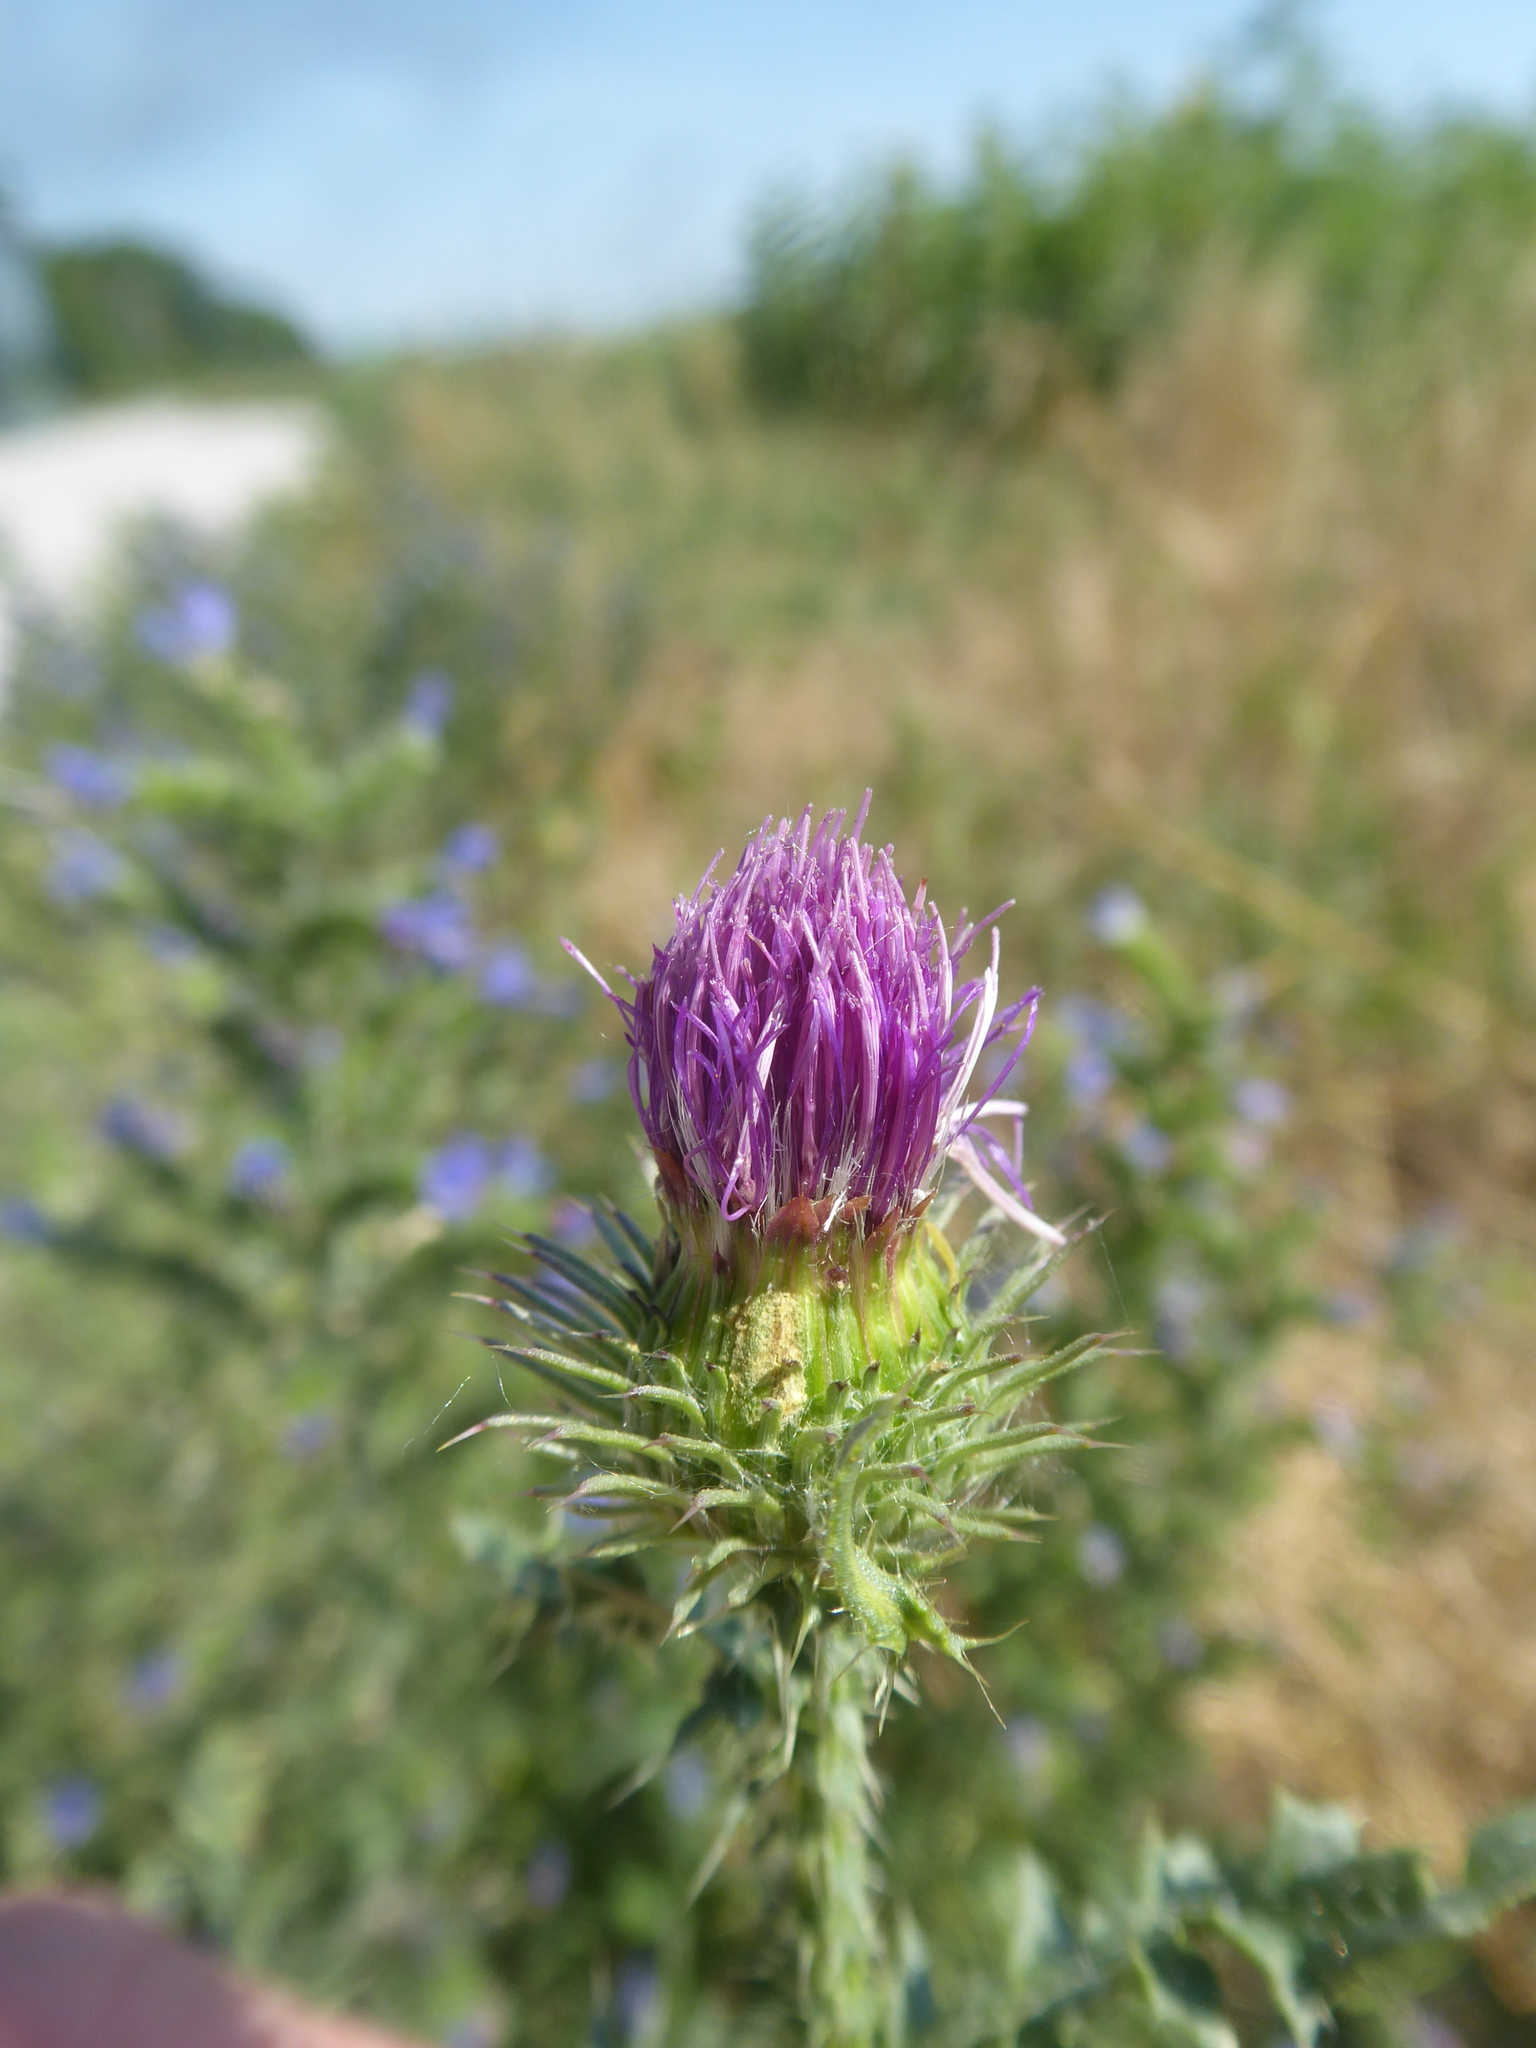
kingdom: Plantae
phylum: Tracheophyta
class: Magnoliopsida
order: Asterales
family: Asteraceae
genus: Carduus
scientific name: Carduus acanthoides
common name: Plumeless thistle
